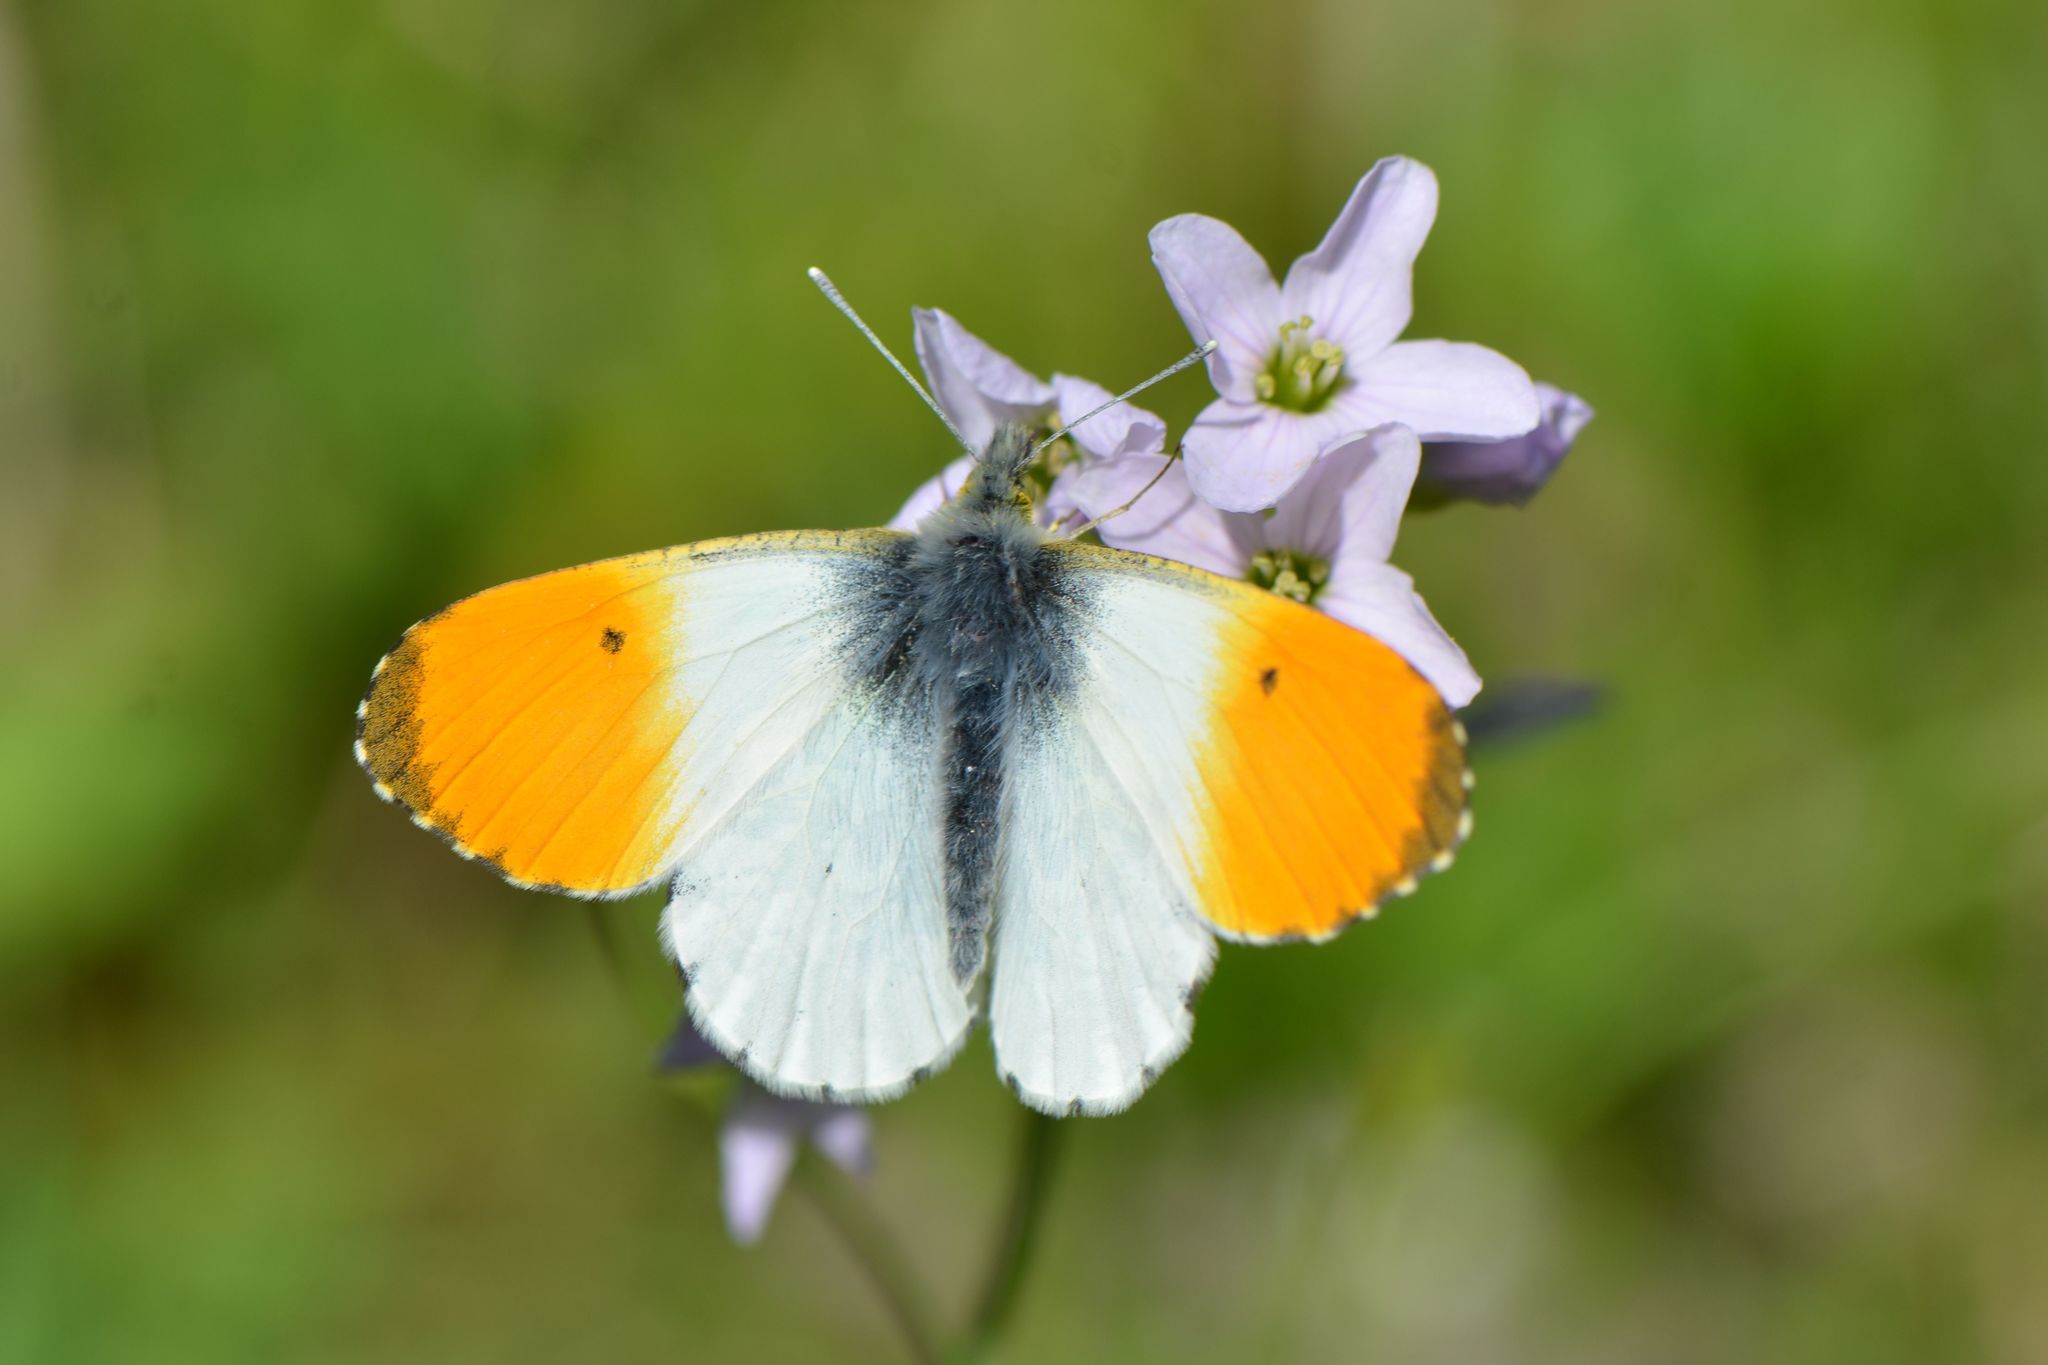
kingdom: Animalia
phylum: Arthropoda
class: Insecta
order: Lepidoptera
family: Pieridae
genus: Anthocharis
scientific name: Anthocharis cardamines
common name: Orange-tip
